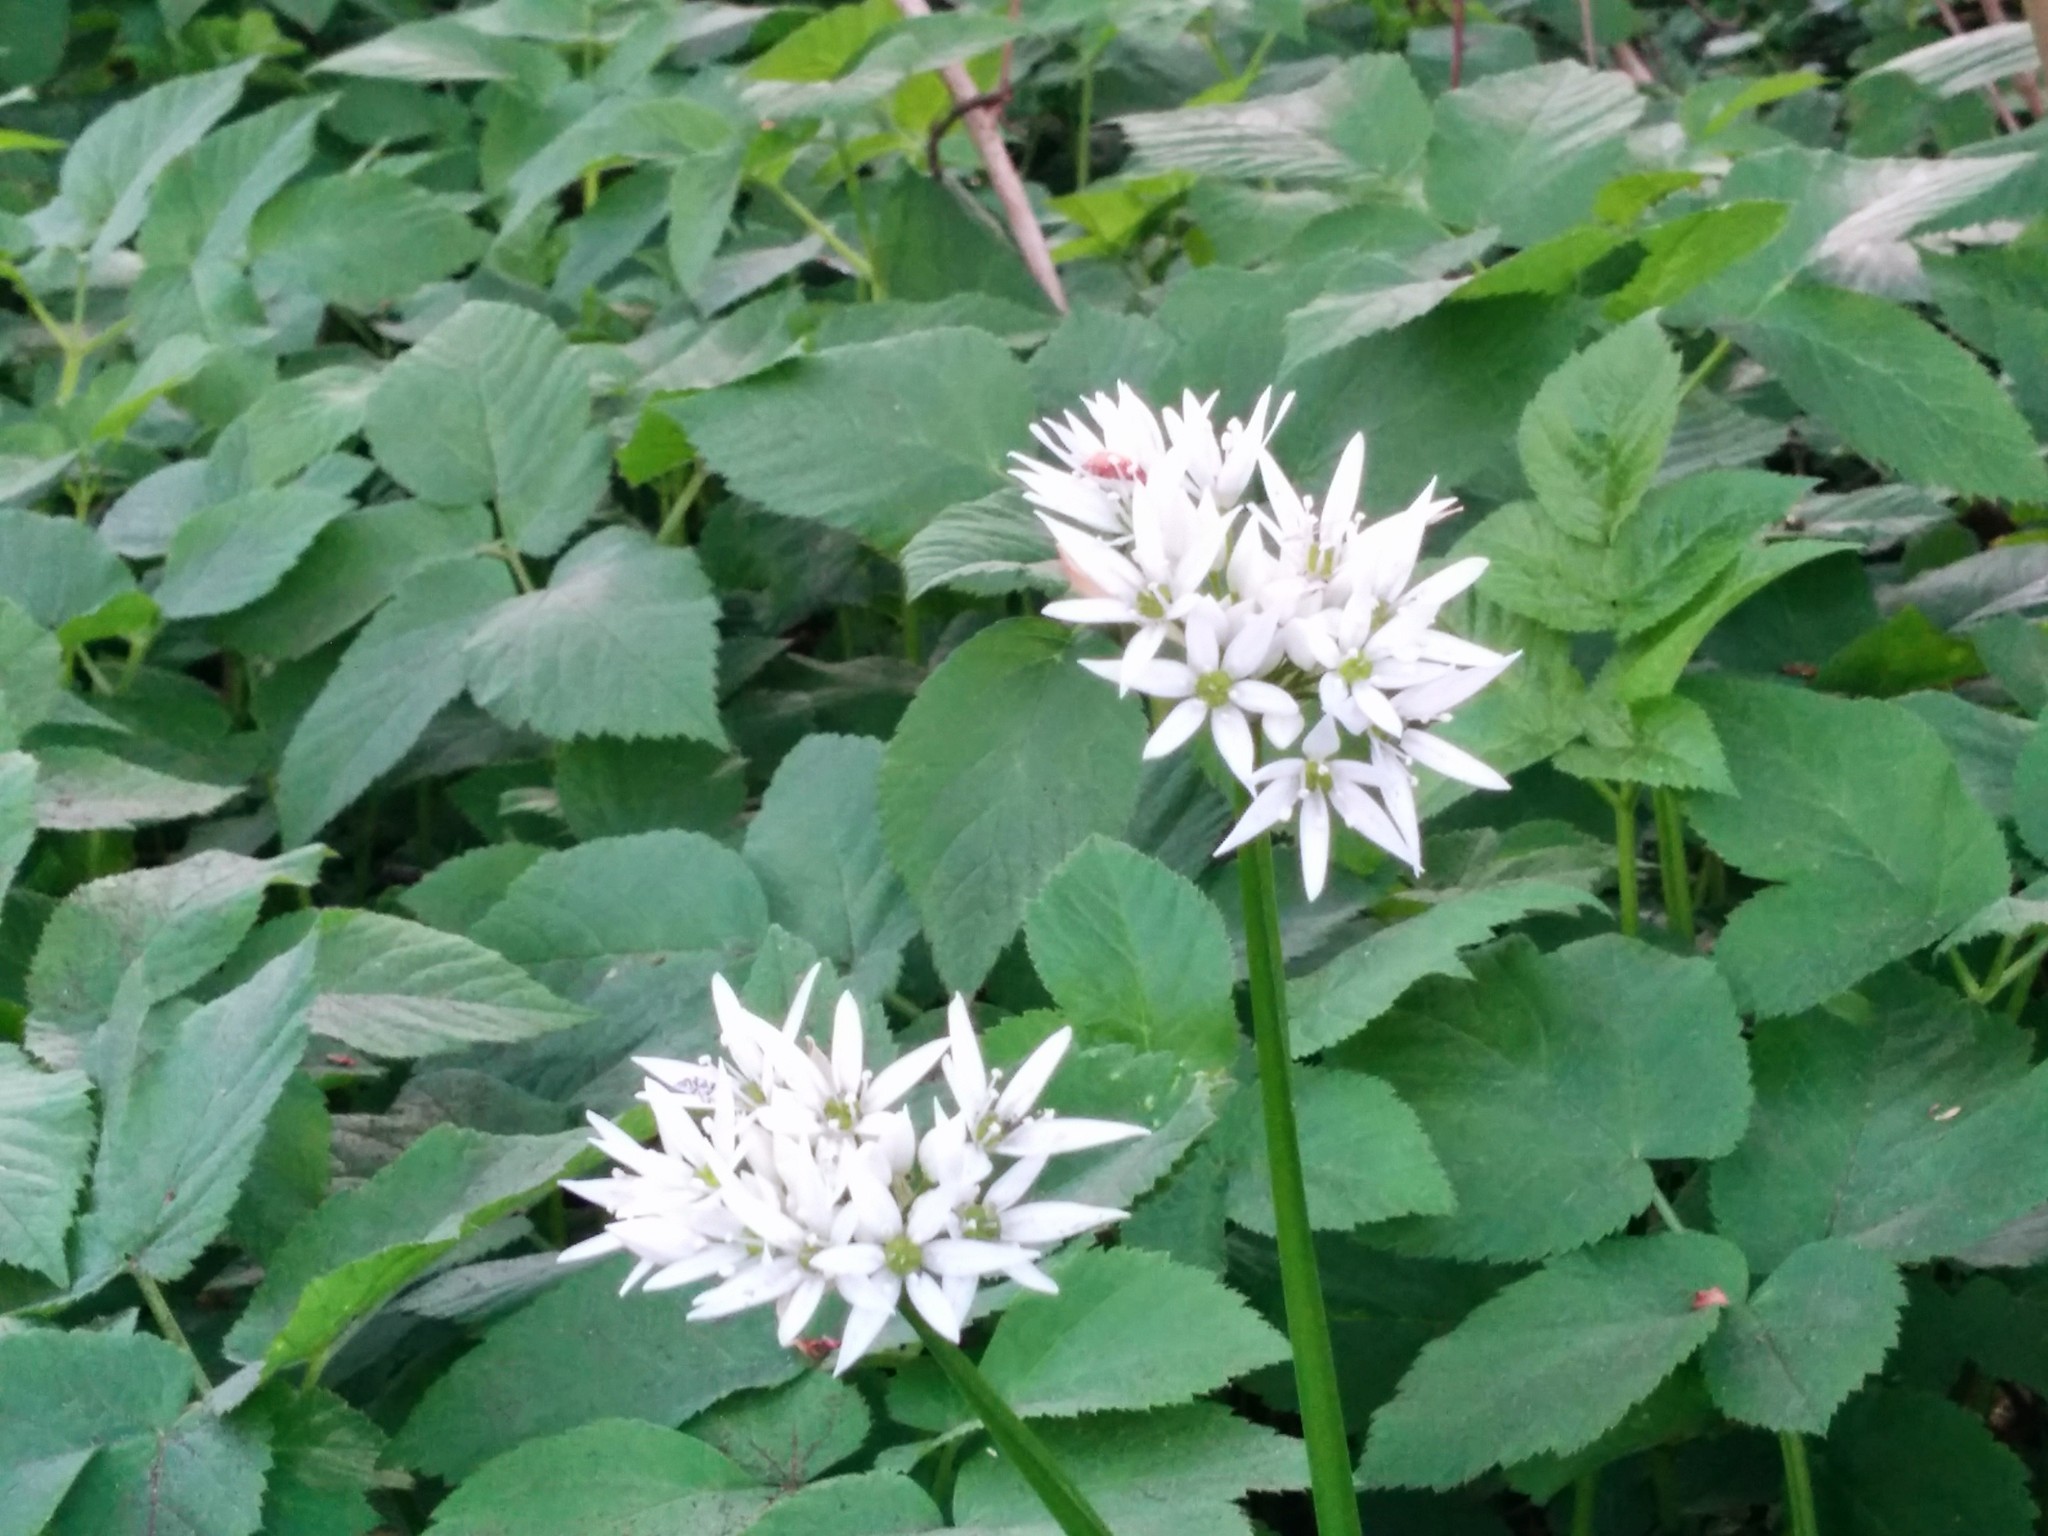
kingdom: Plantae
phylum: Tracheophyta
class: Liliopsida
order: Asparagales
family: Amaryllidaceae
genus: Allium
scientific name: Allium ursinum
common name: Ramsons
